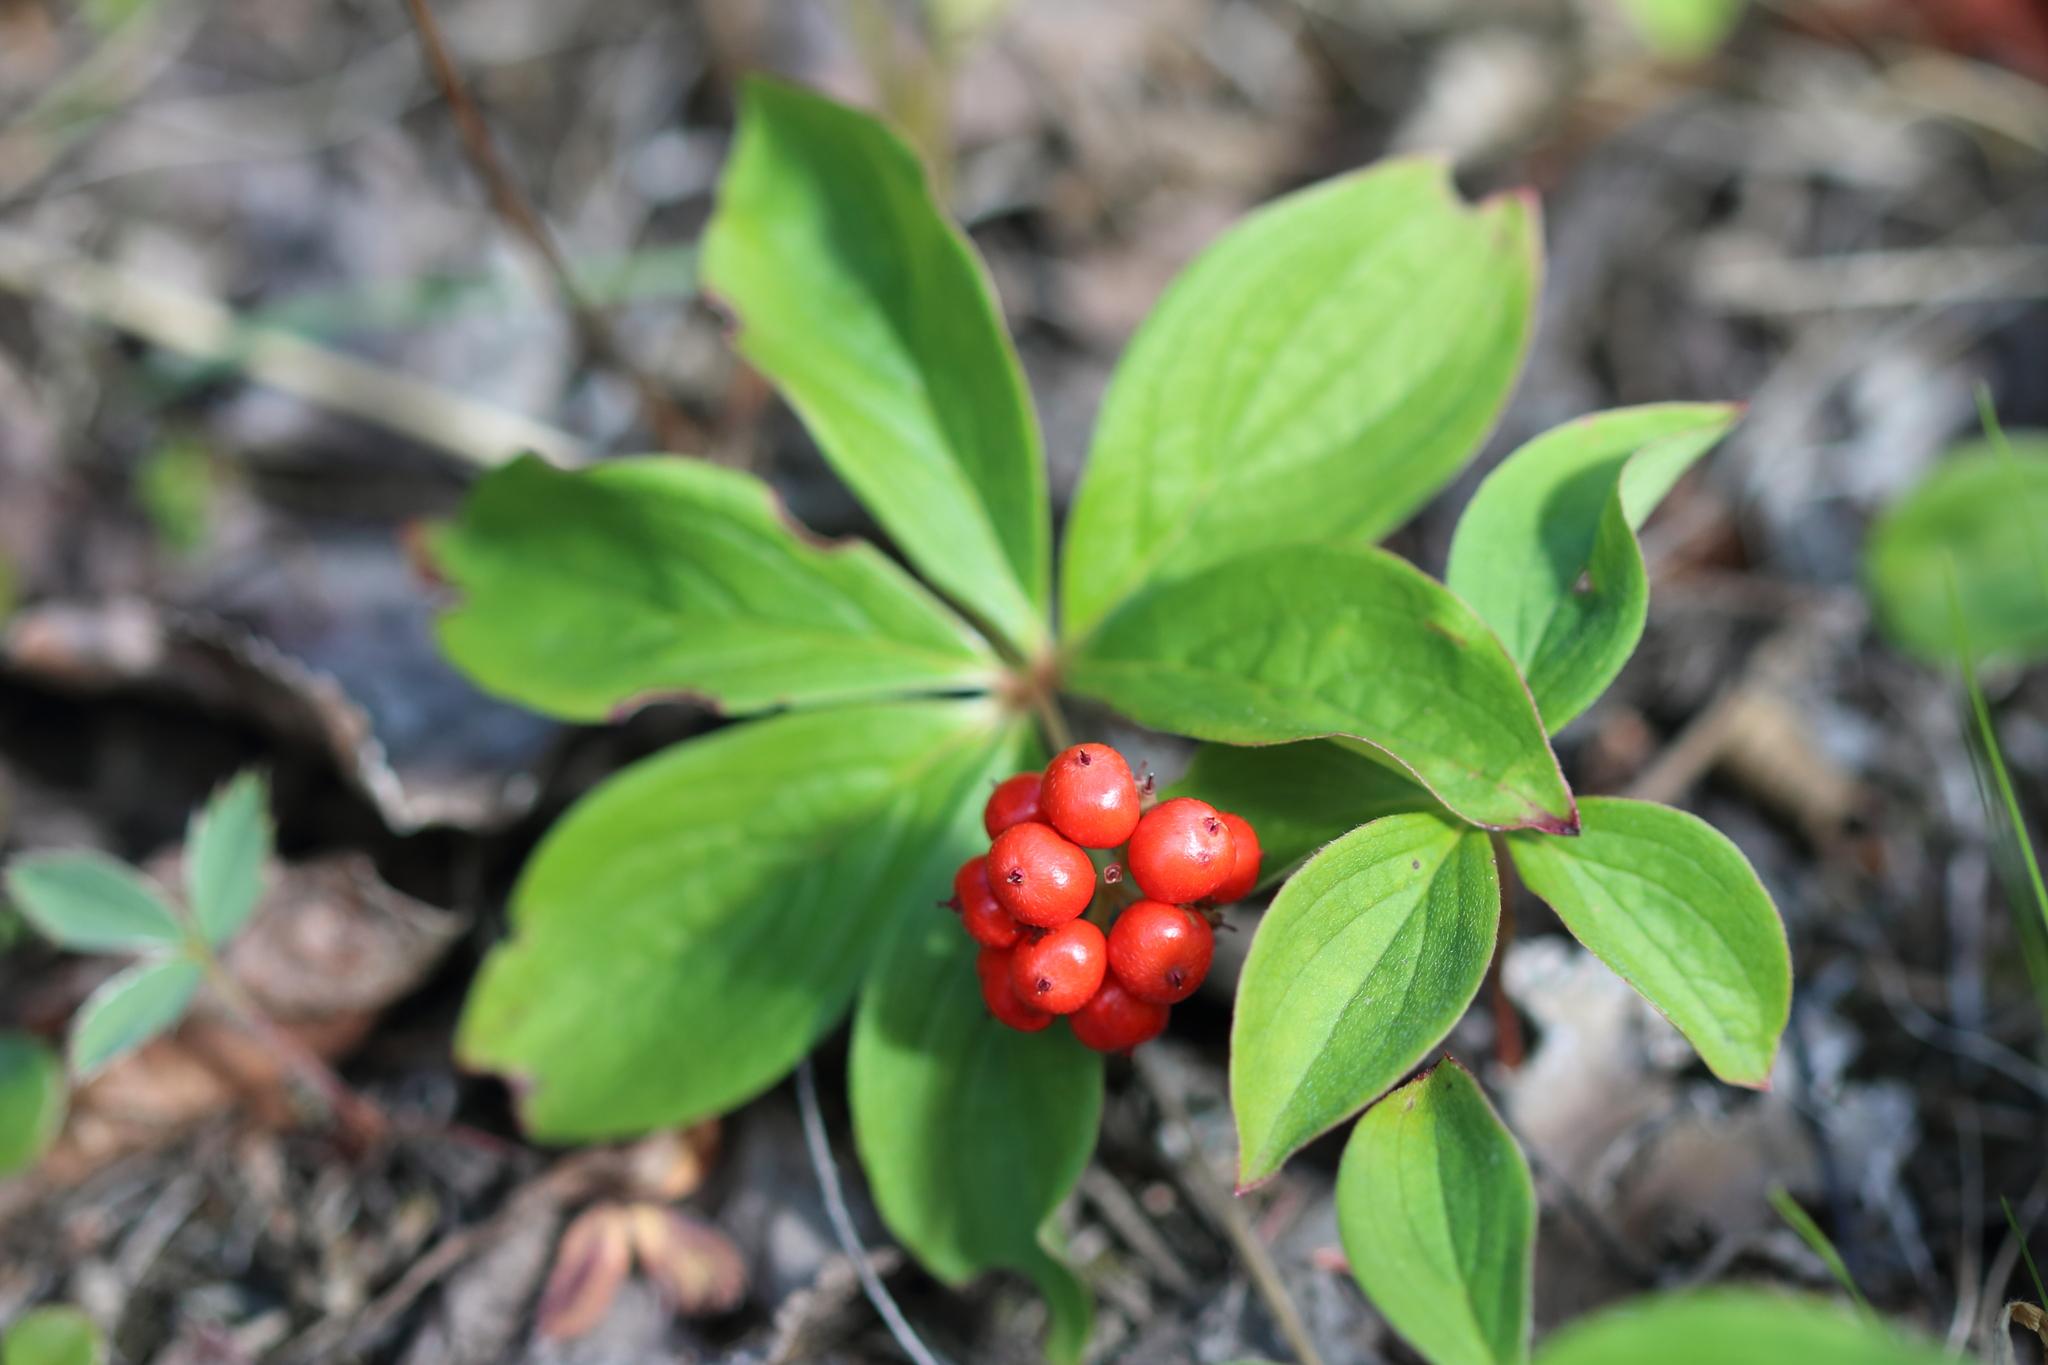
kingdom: Plantae
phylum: Tracheophyta
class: Magnoliopsida
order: Cornales
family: Cornaceae
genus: Cornus
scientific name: Cornus canadensis
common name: Creeping dogwood
